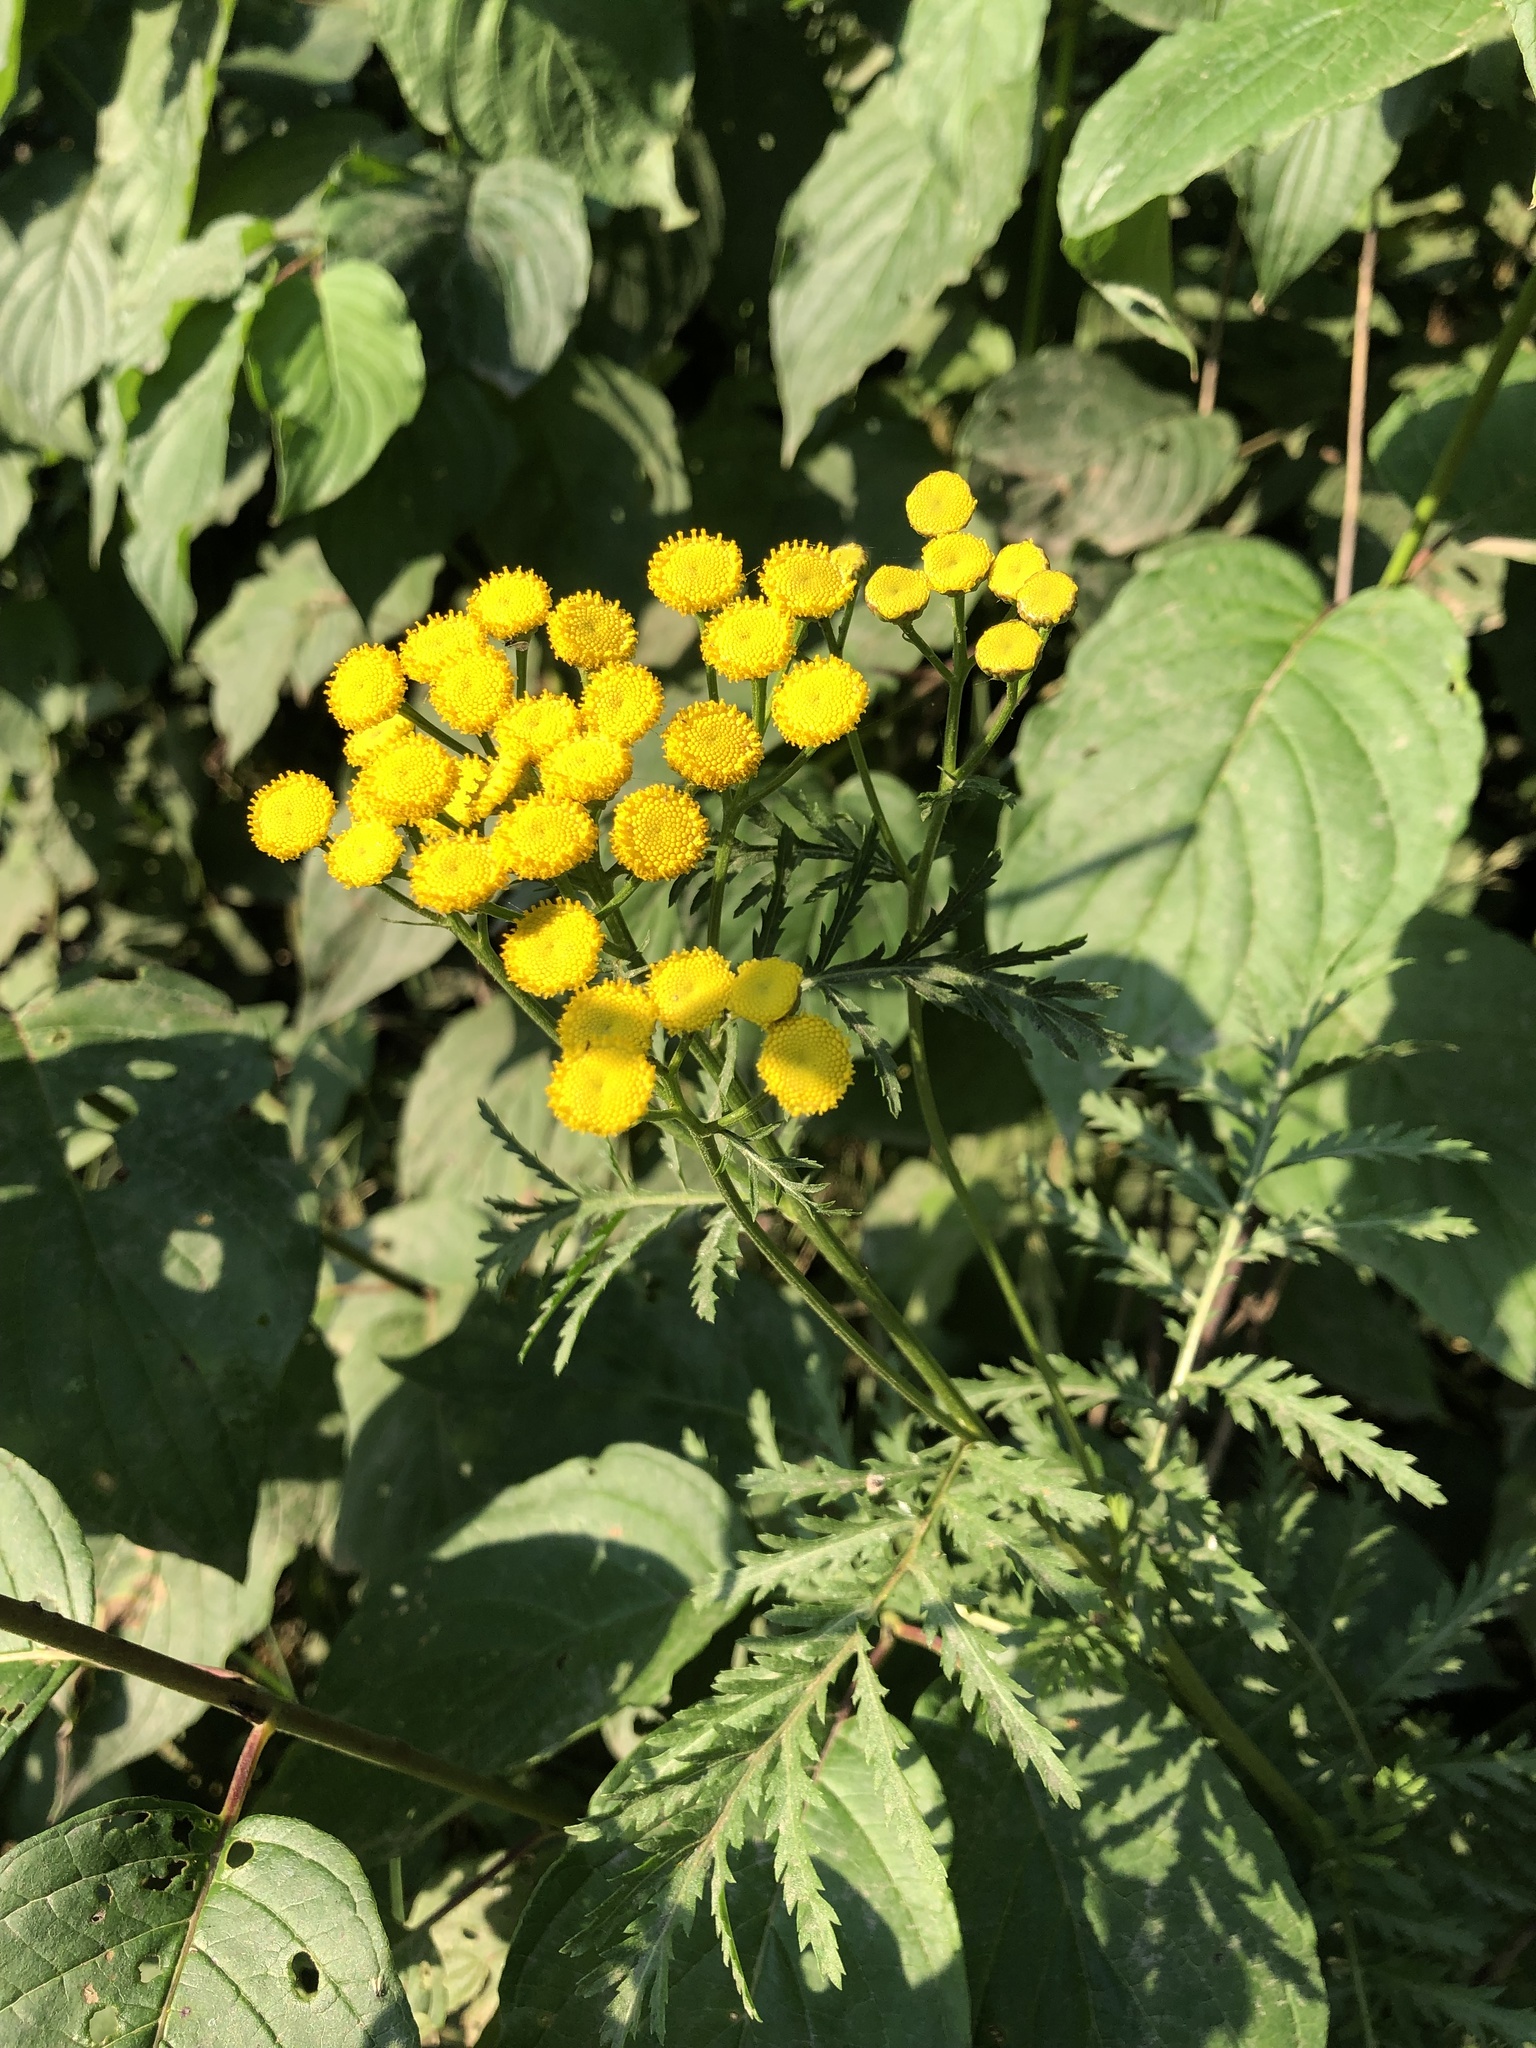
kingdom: Plantae
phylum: Tracheophyta
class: Magnoliopsida
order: Asterales
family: Asteraceae
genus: Tanacetum
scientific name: Tanacetum vulgare
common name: Common tansy
